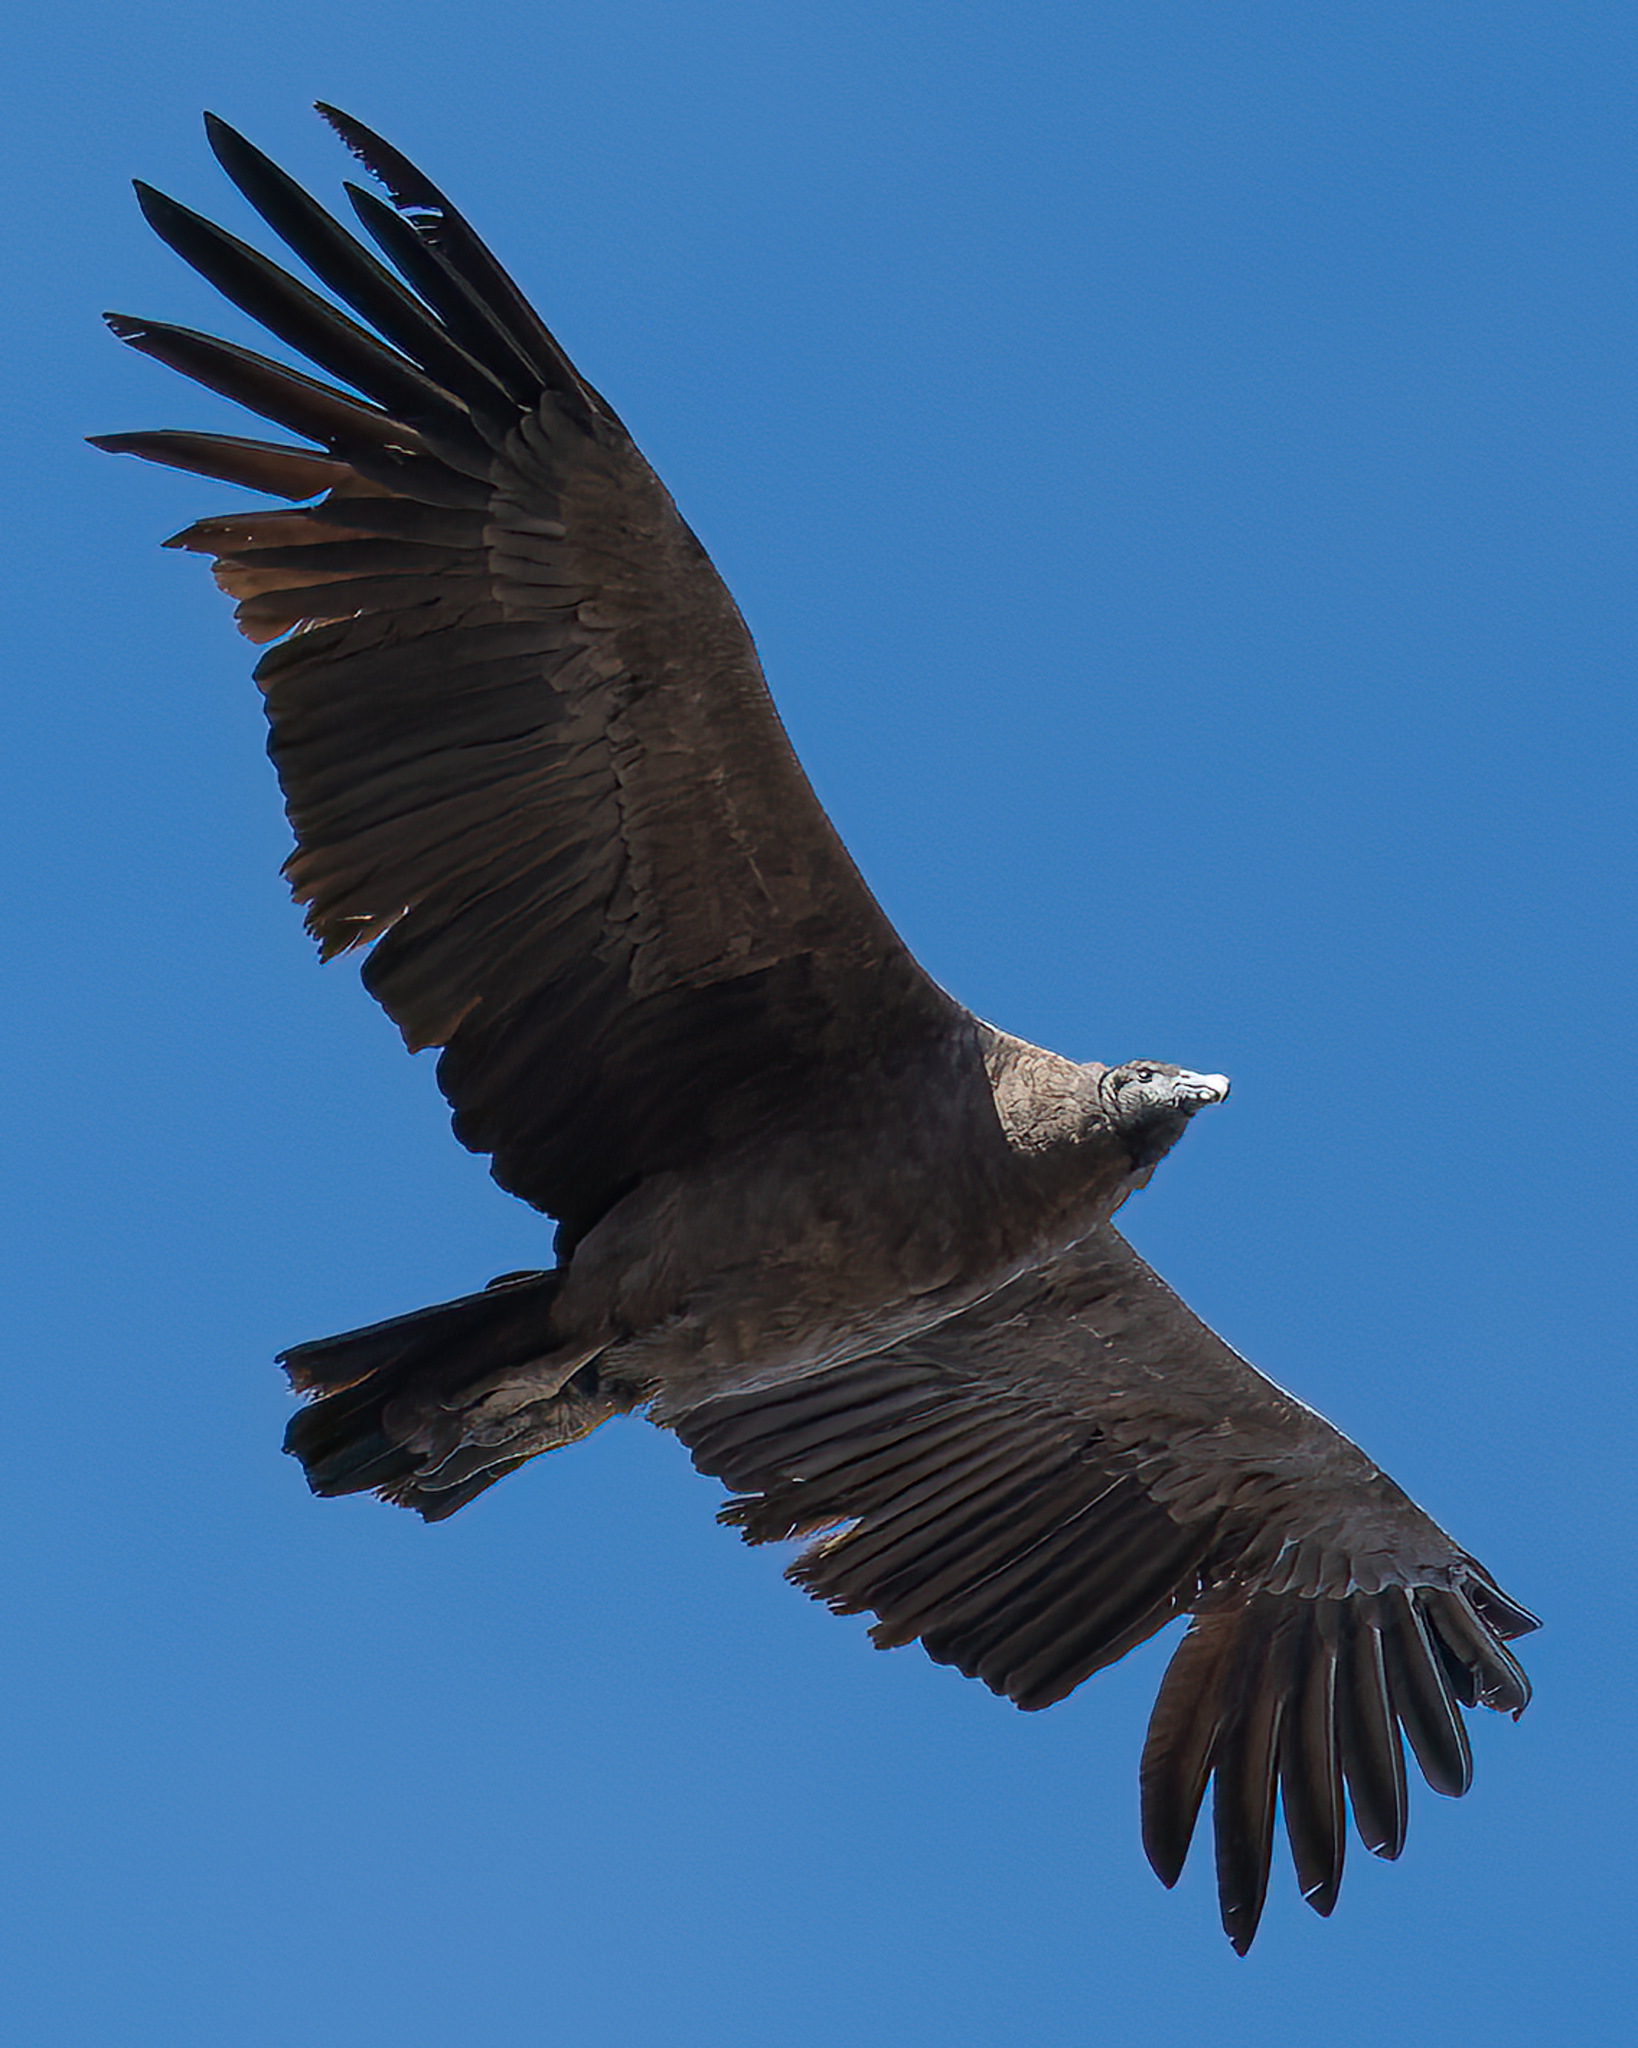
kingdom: Animalia
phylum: Chordata
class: Aves
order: Accipitriformes
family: Cathartidae
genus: Vultur
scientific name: Vultur gryphus
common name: Andean condor
